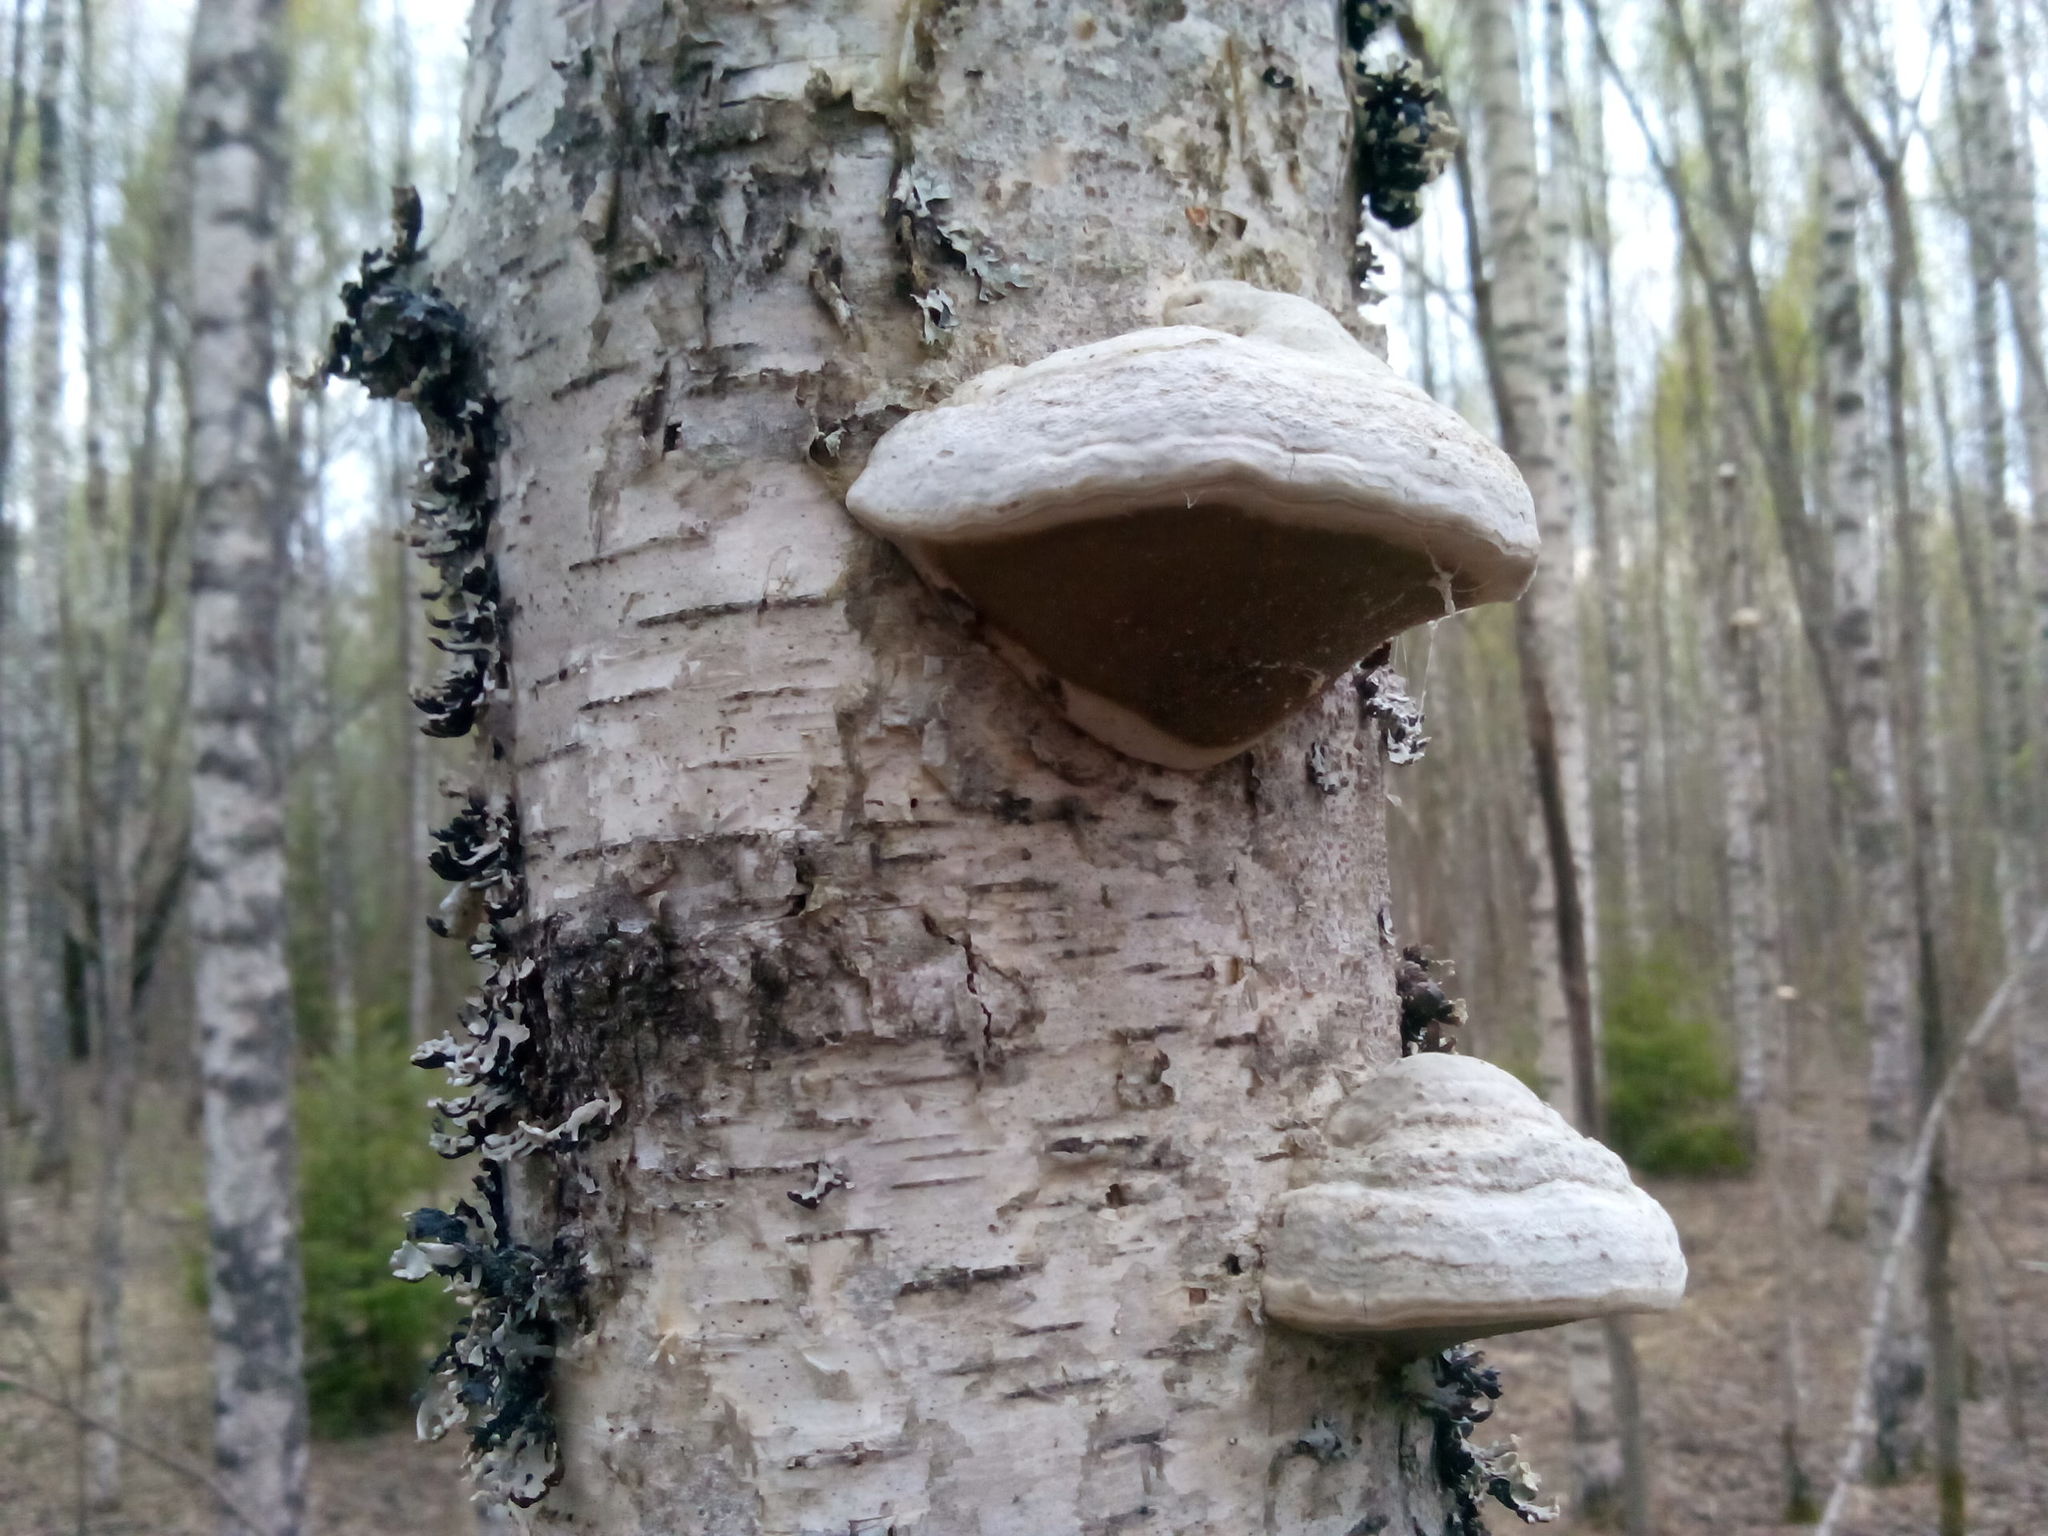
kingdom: Fungi
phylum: Basidiomycota
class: Agaricomycetes
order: Polyporales
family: Polyporaceae
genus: Fomes
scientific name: Fomes fomentarius
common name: Hoof fungus
